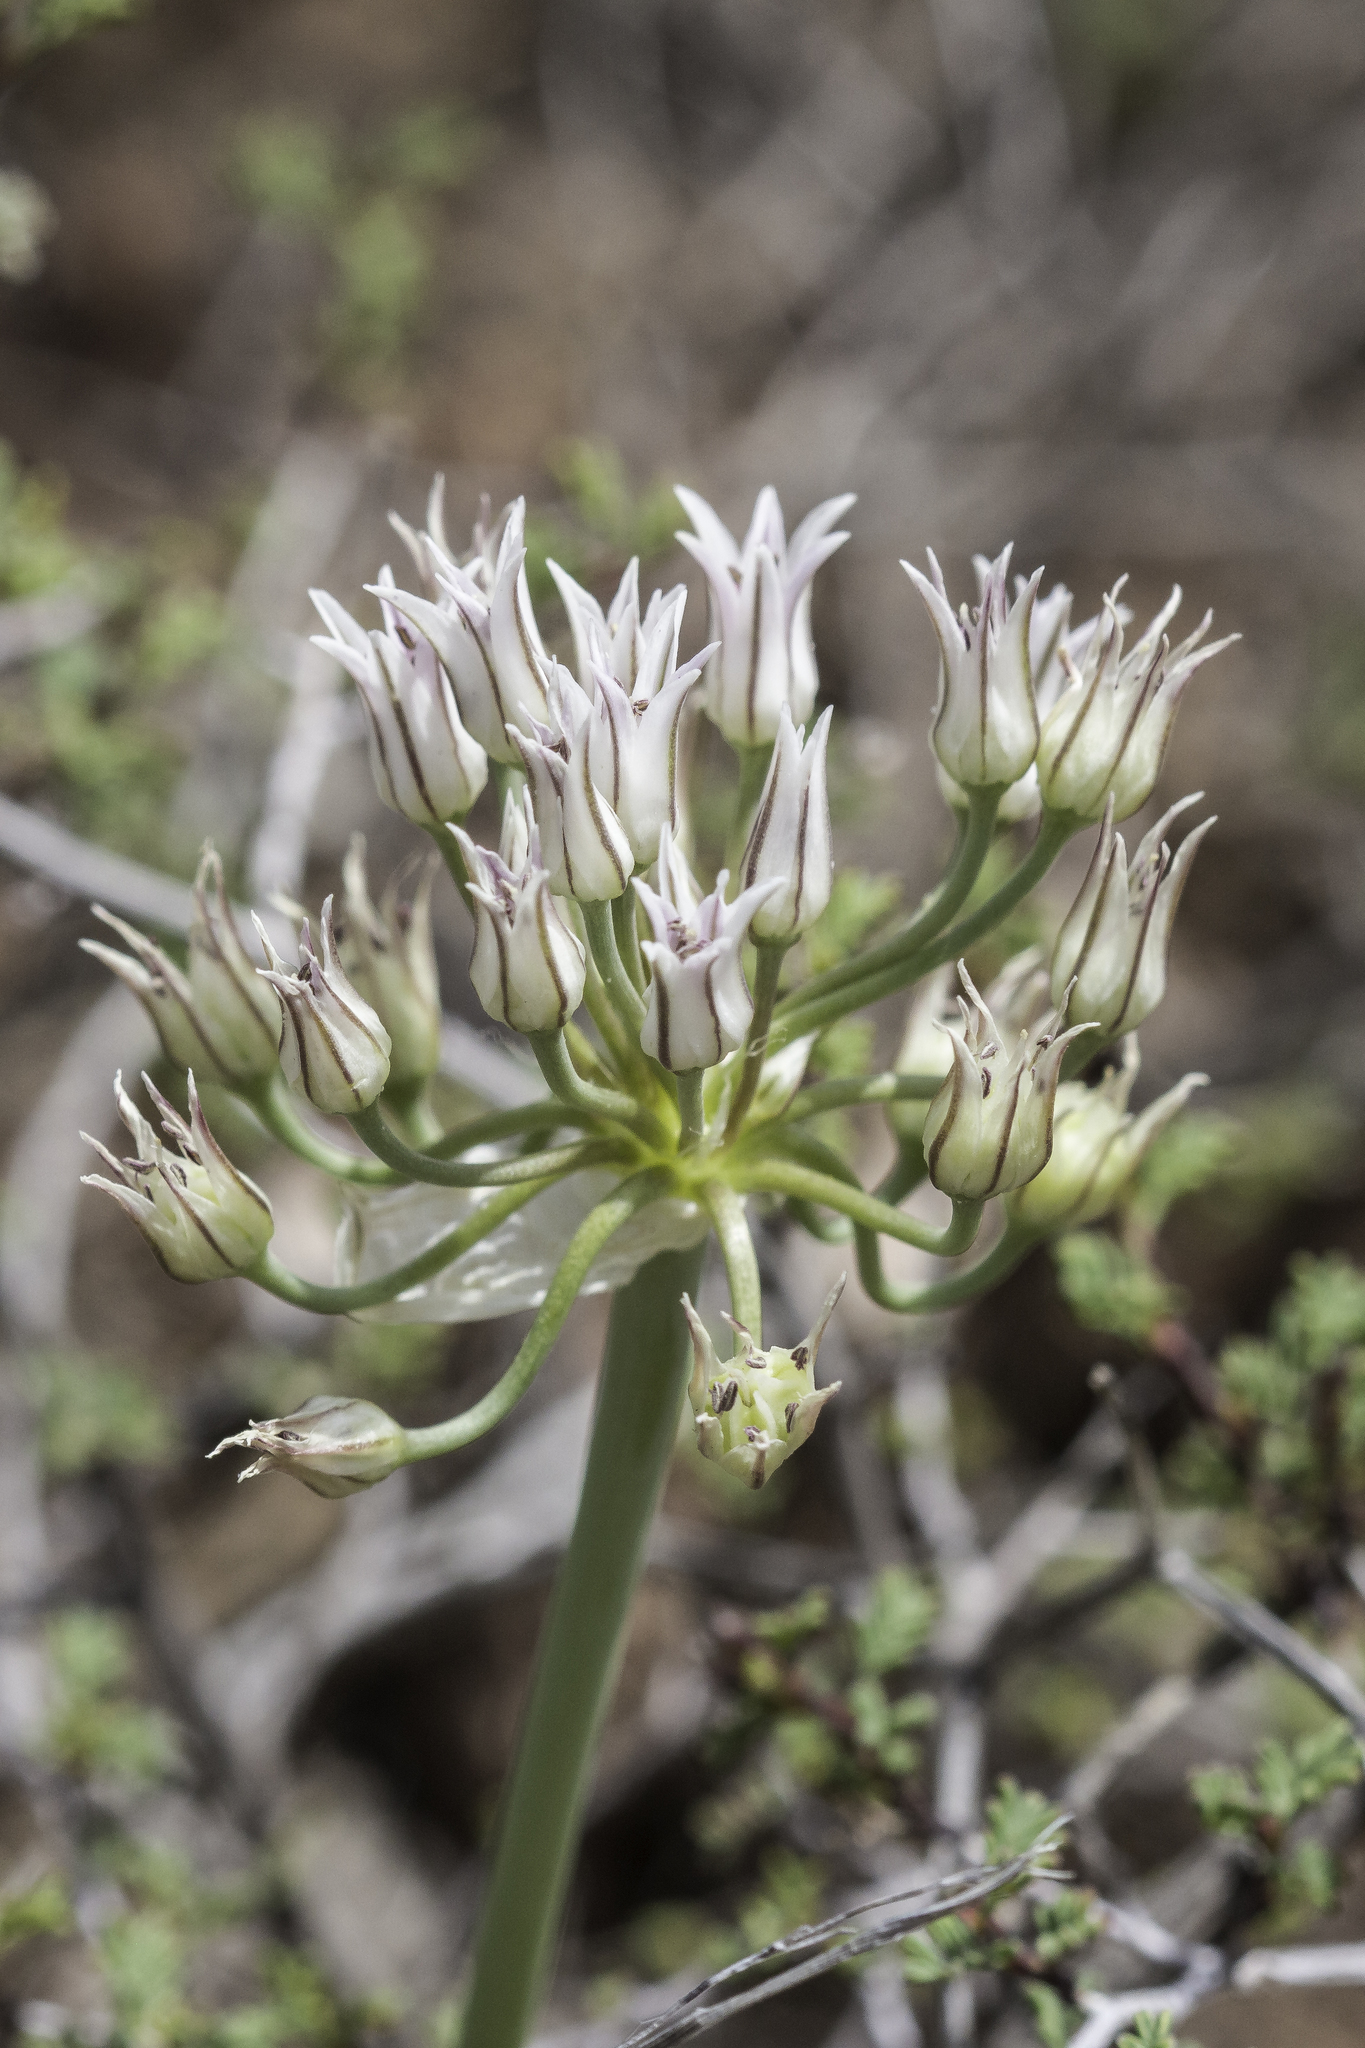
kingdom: Plantae
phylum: Tracheophyta
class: Liliopsida
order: Asparagales
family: Amaryllidaceae
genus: Allium
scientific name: Allium macropetalum
